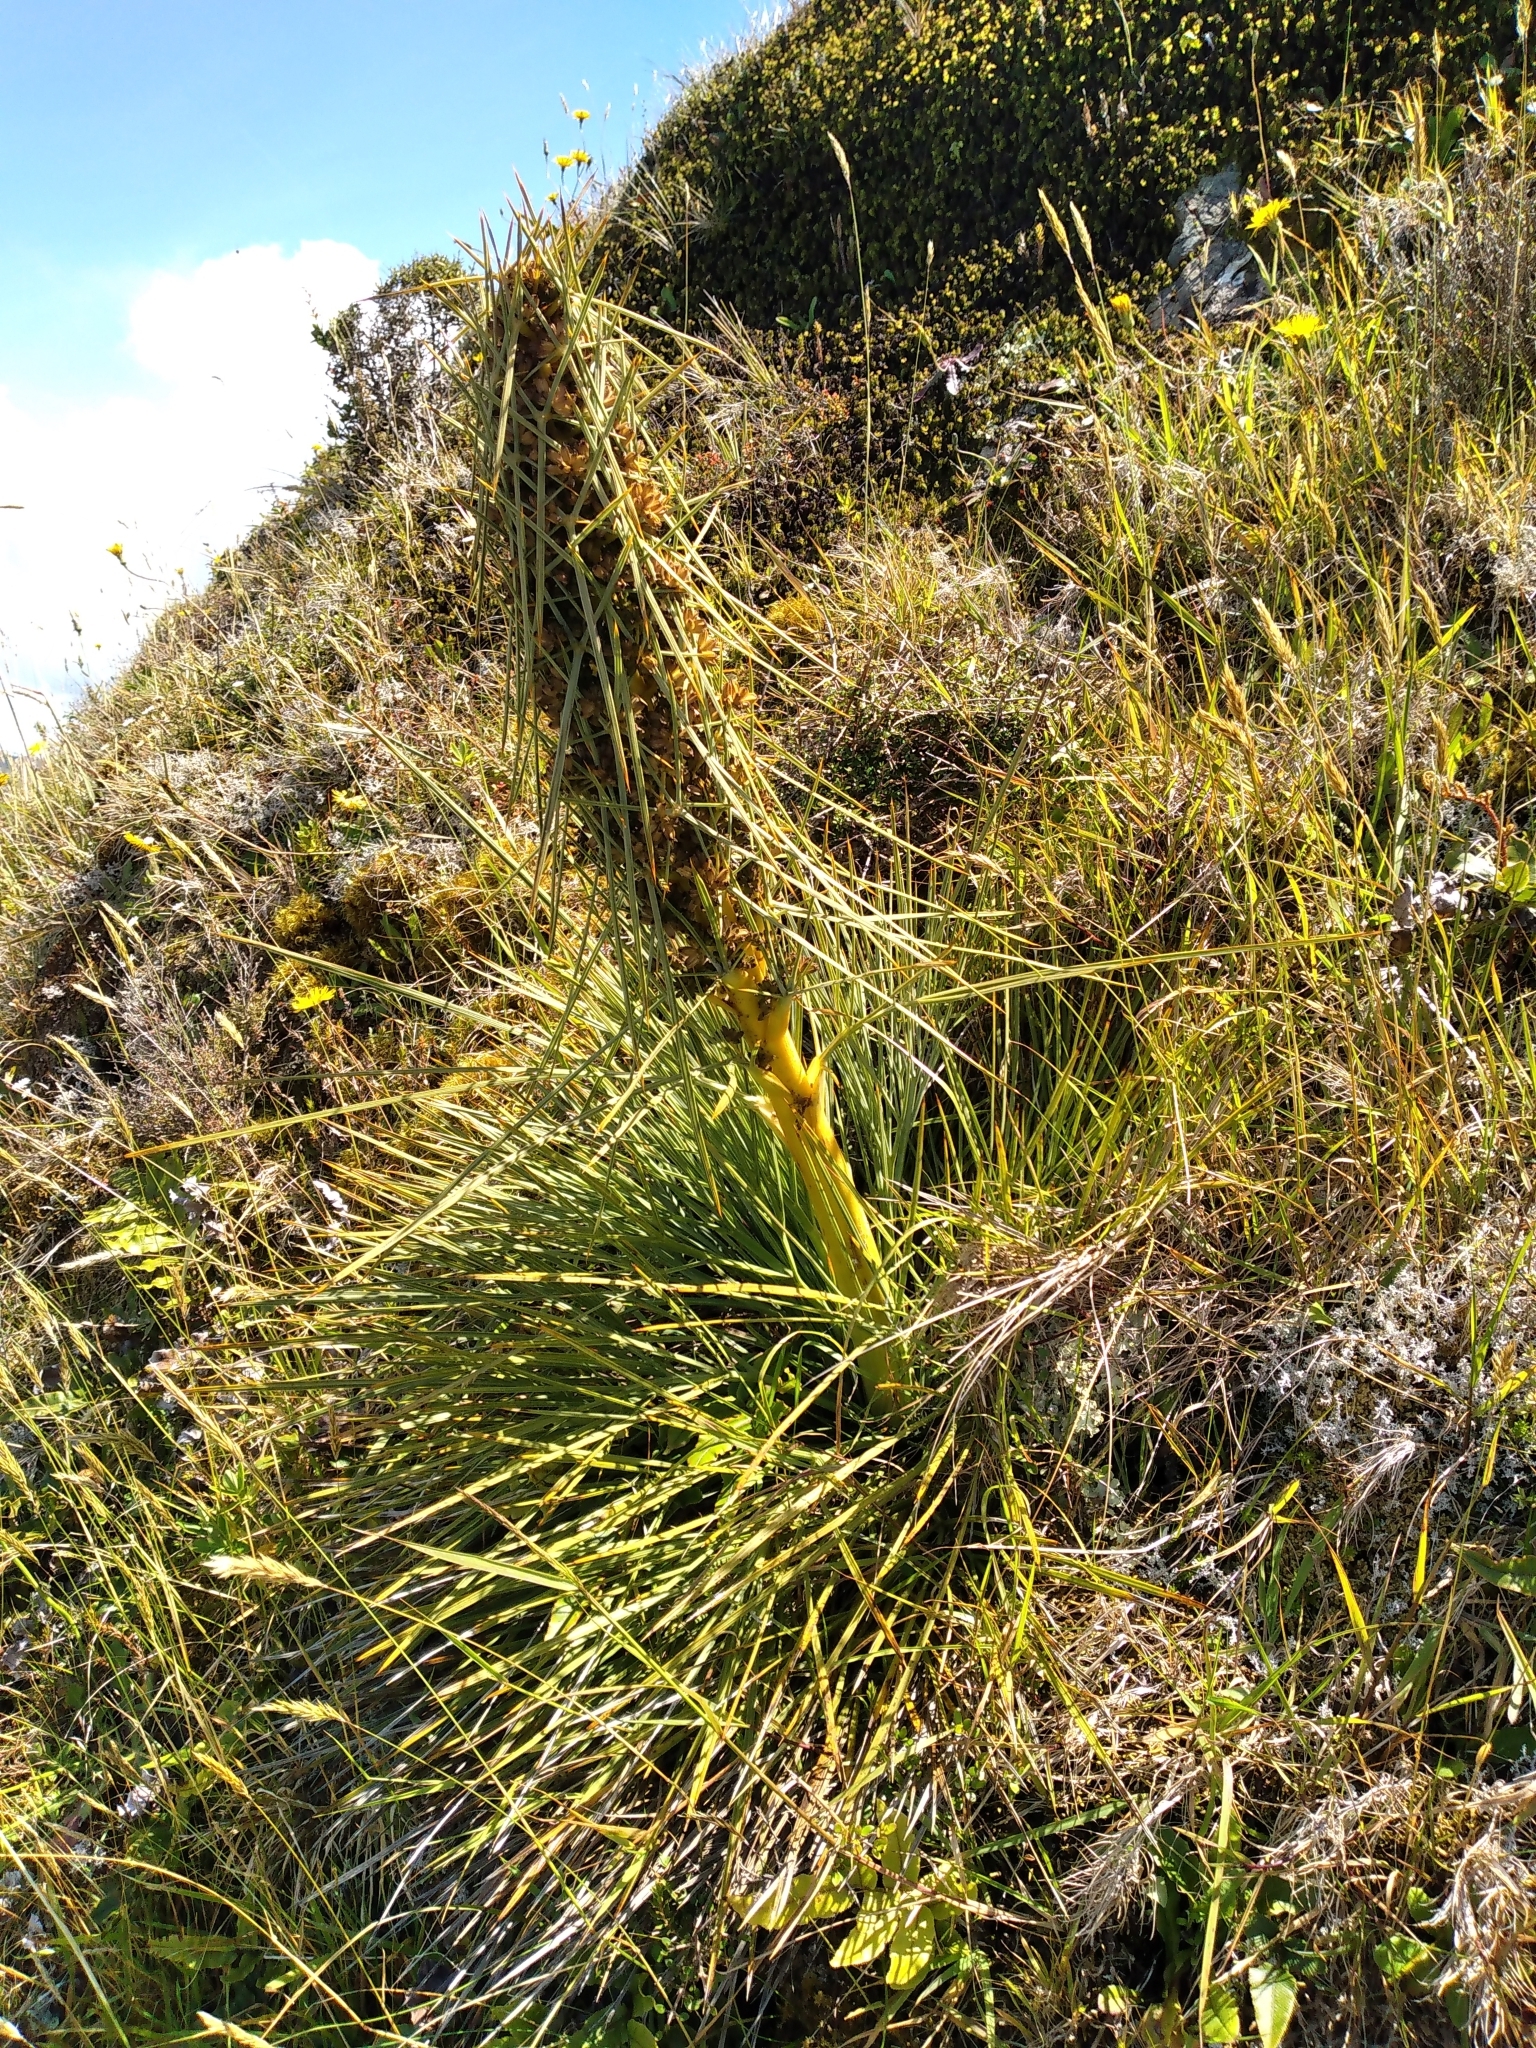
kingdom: Plantae
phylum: Tracheophyta
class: Magnoliopsida
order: Apiales
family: Apiaceae
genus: Aciphylla
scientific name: Aciphylla squarrosa
